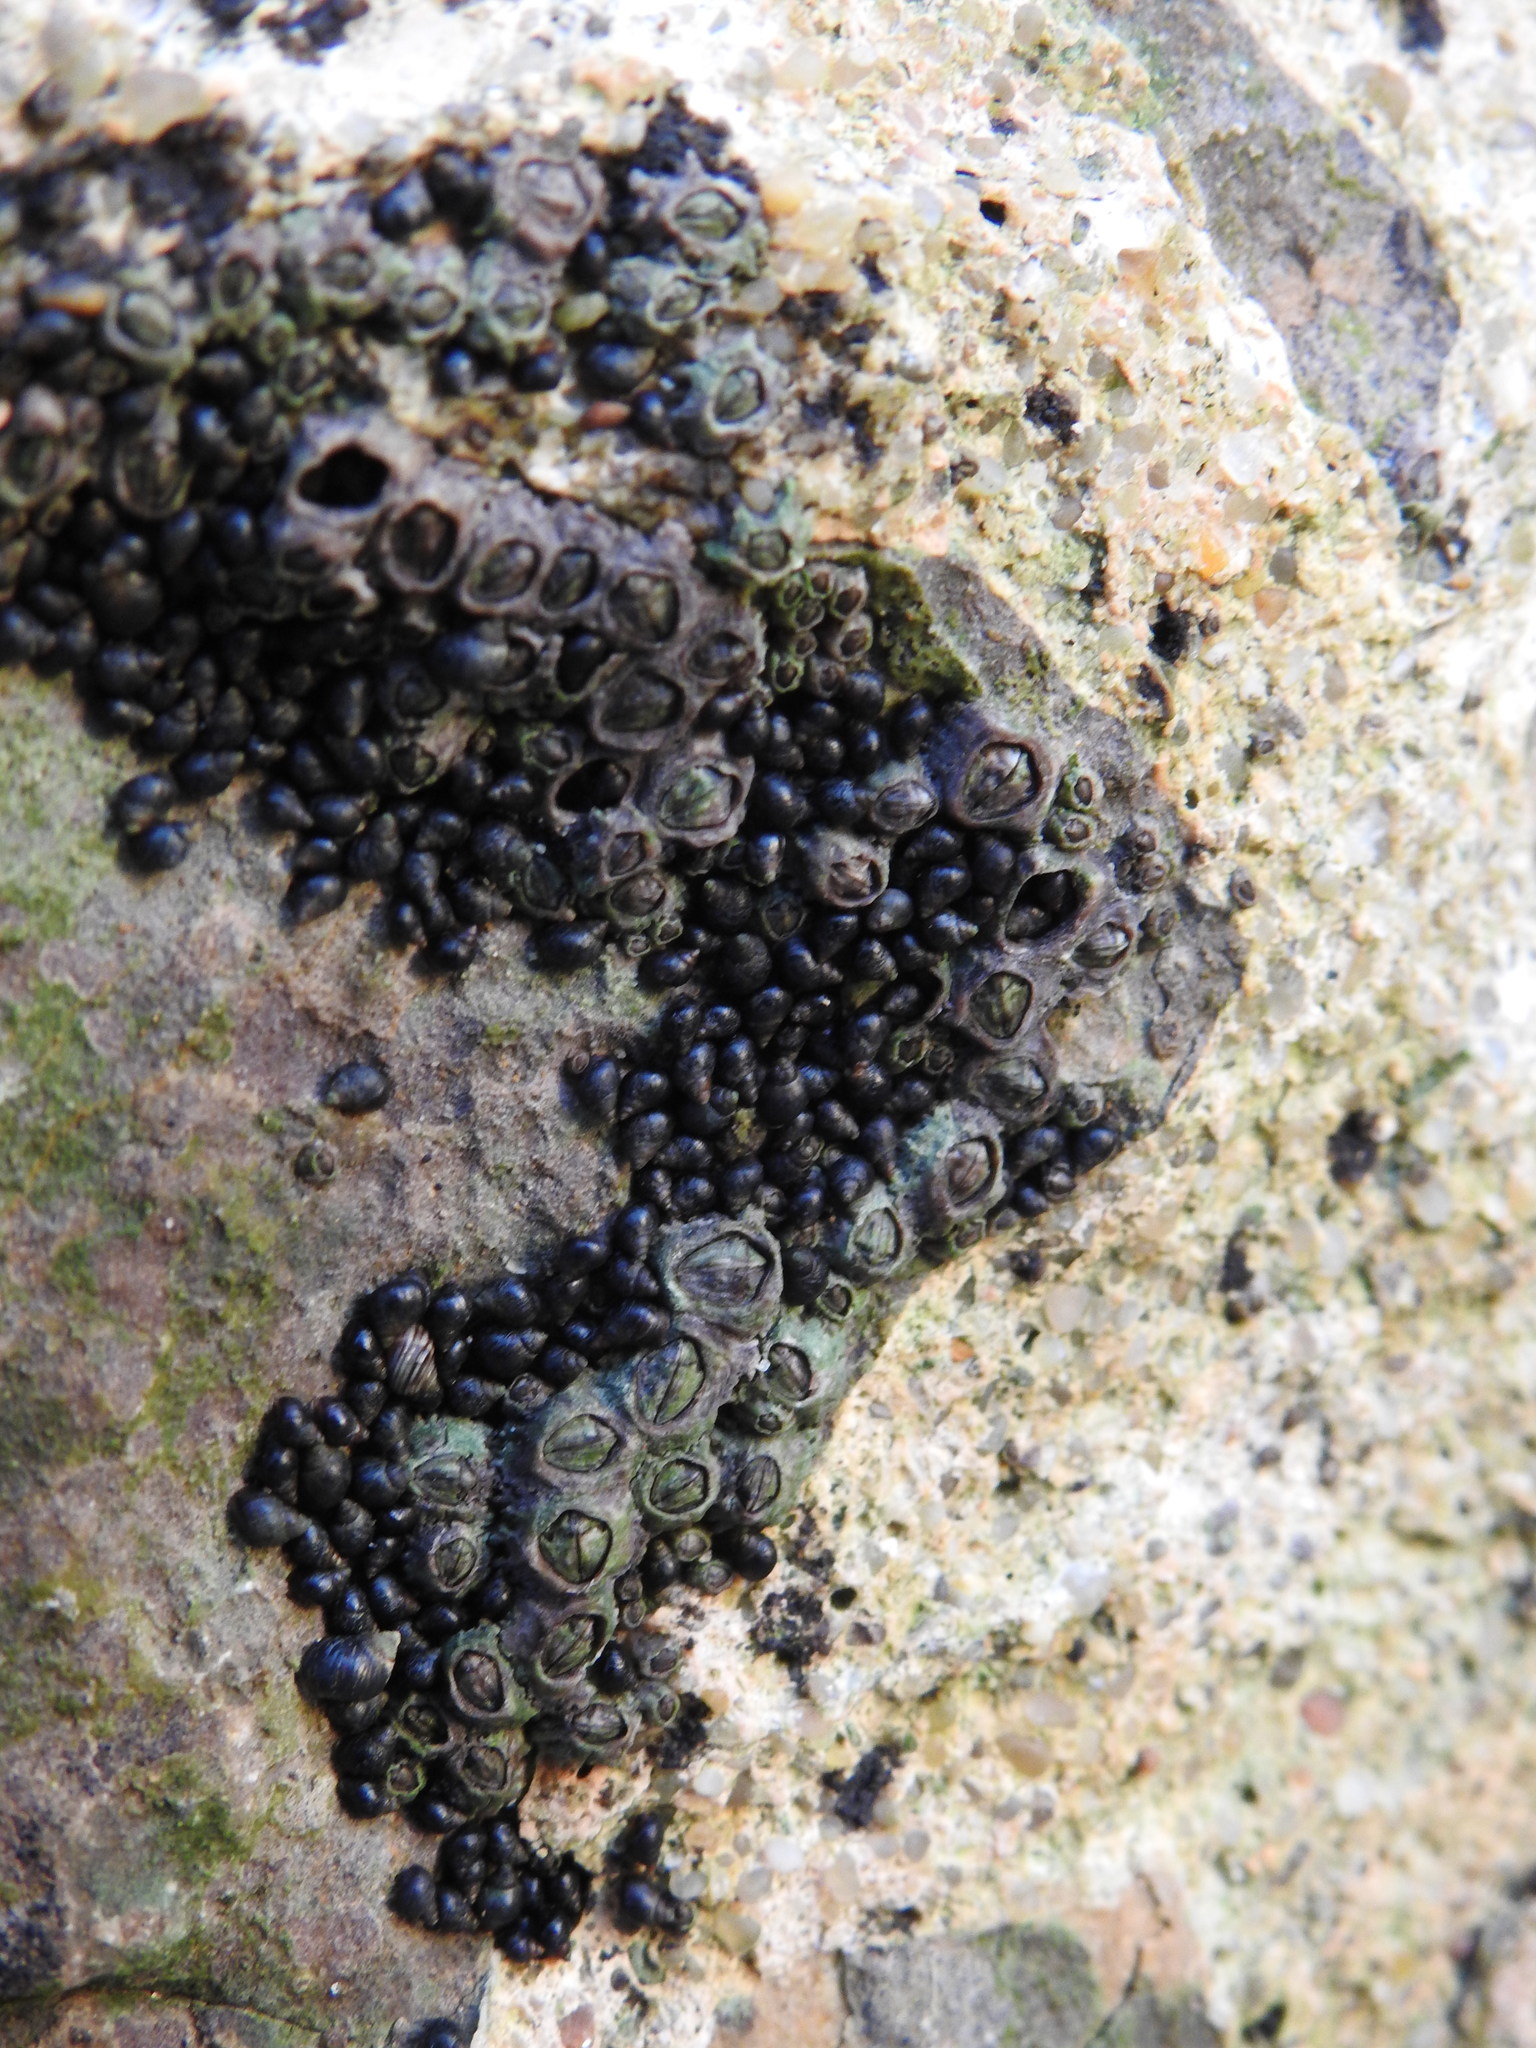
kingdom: Animalia
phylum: Mollusca
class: Gastropoda
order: Littorinimorpha
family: Littorinidae
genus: Melarhaphe
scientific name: Melarhaphe neritoides
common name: Small periwinkle
